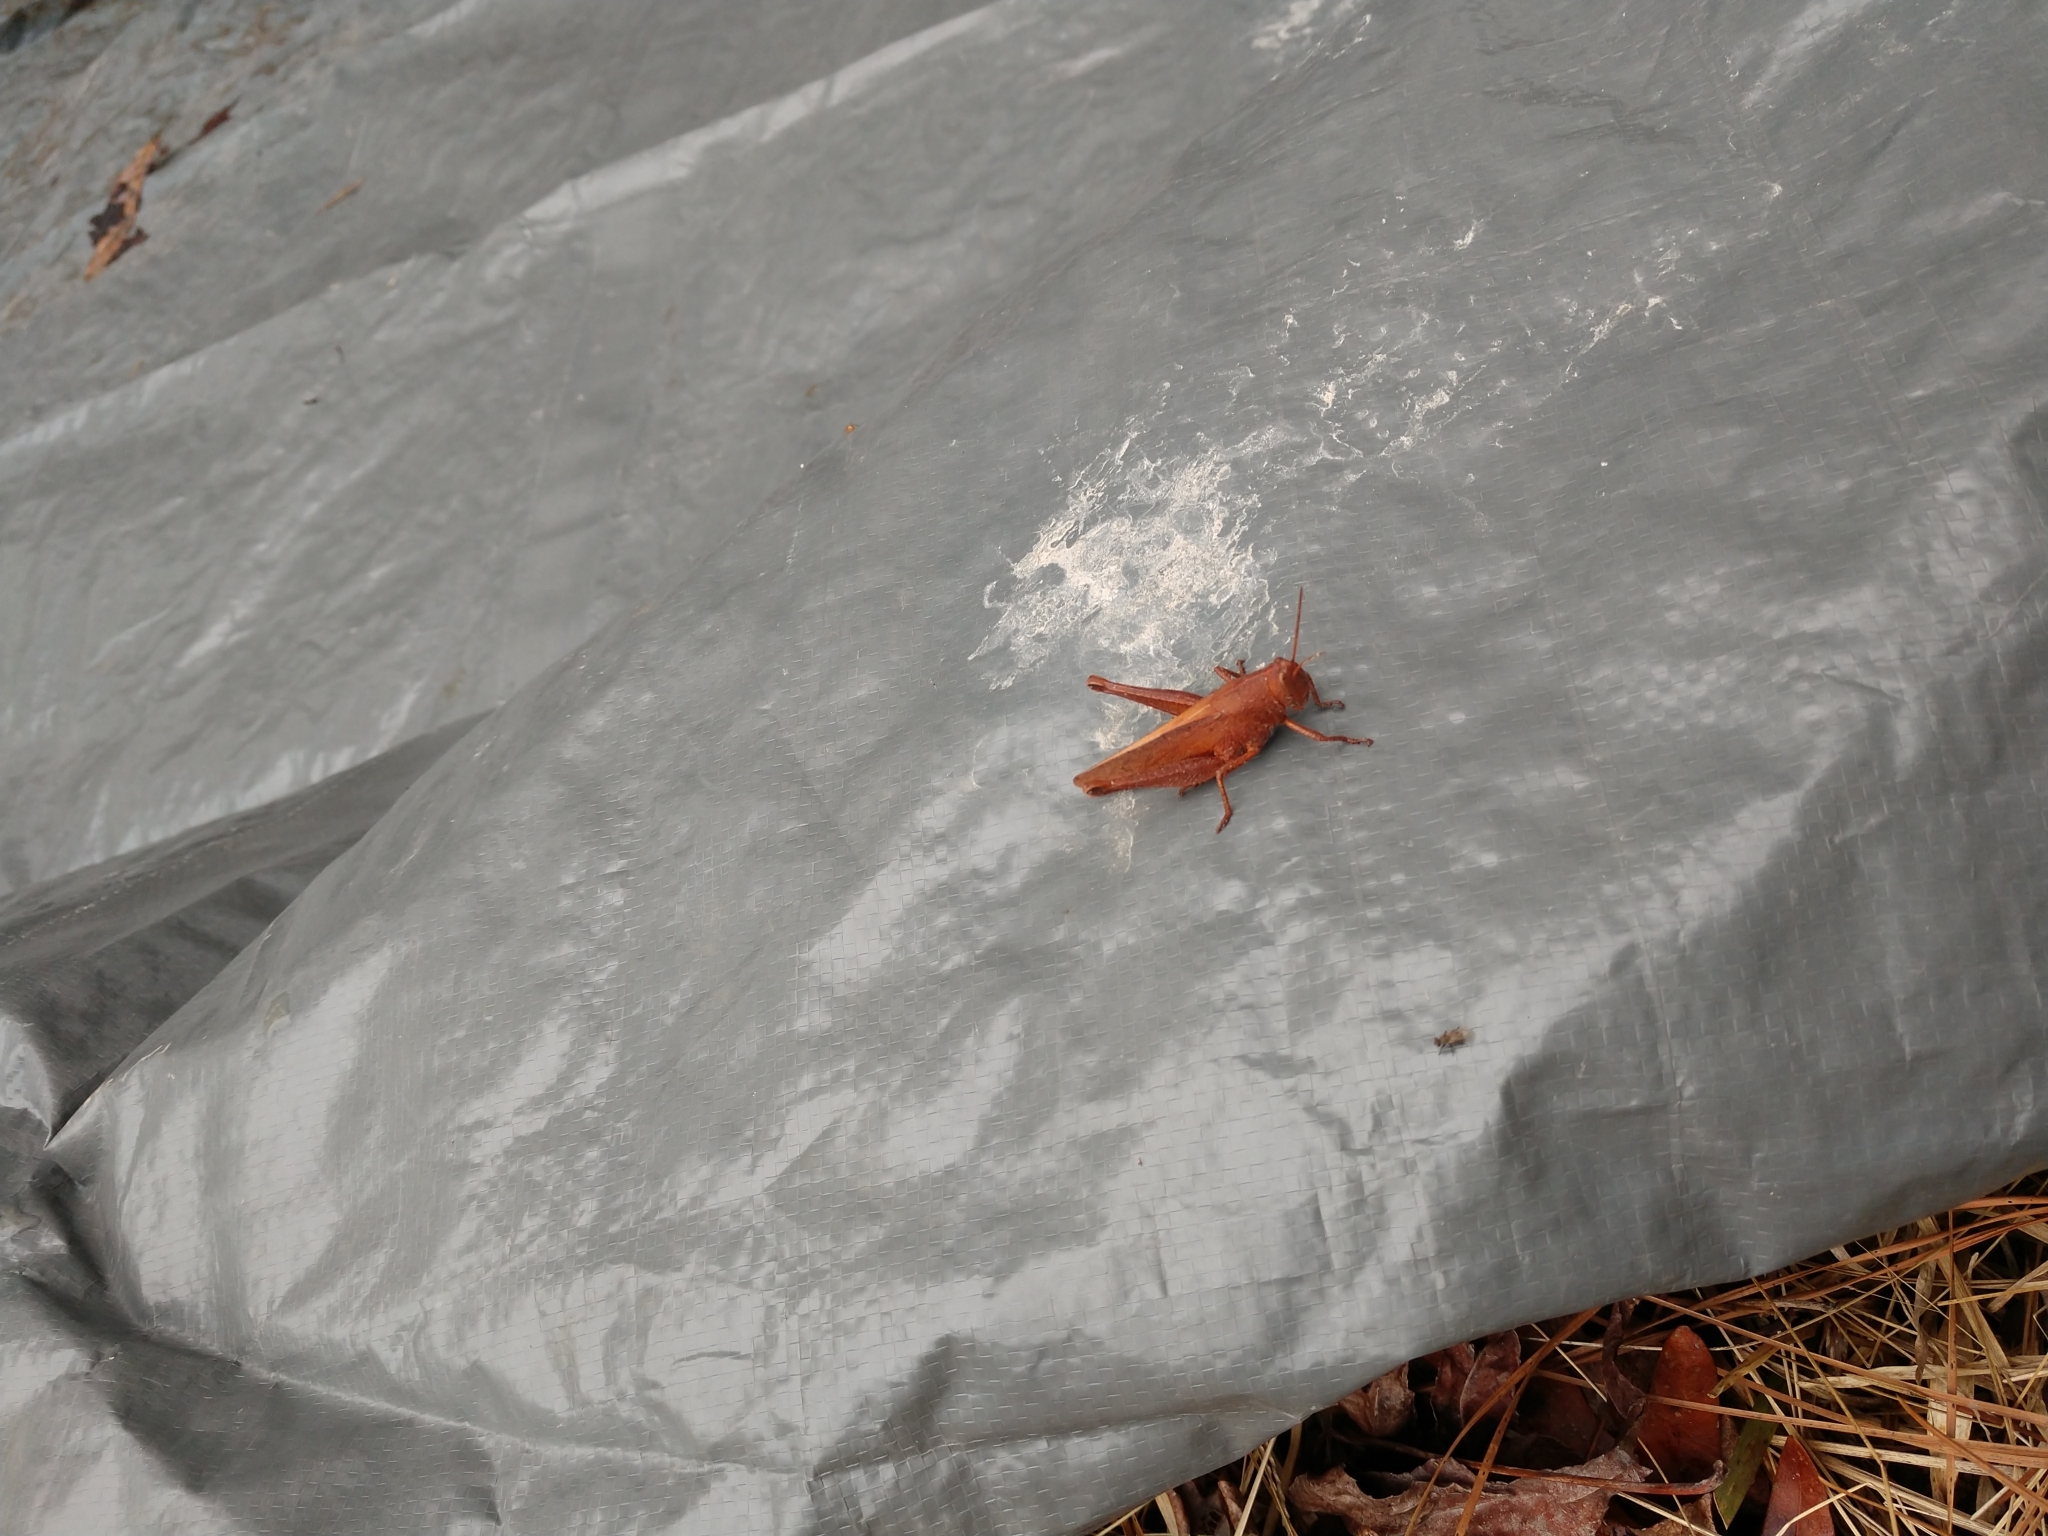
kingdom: Animalia
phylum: Arthropoda
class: Insecta
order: Orthoptera
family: Acrididae
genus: Schistocerca
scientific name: Schistocerca damnifica
